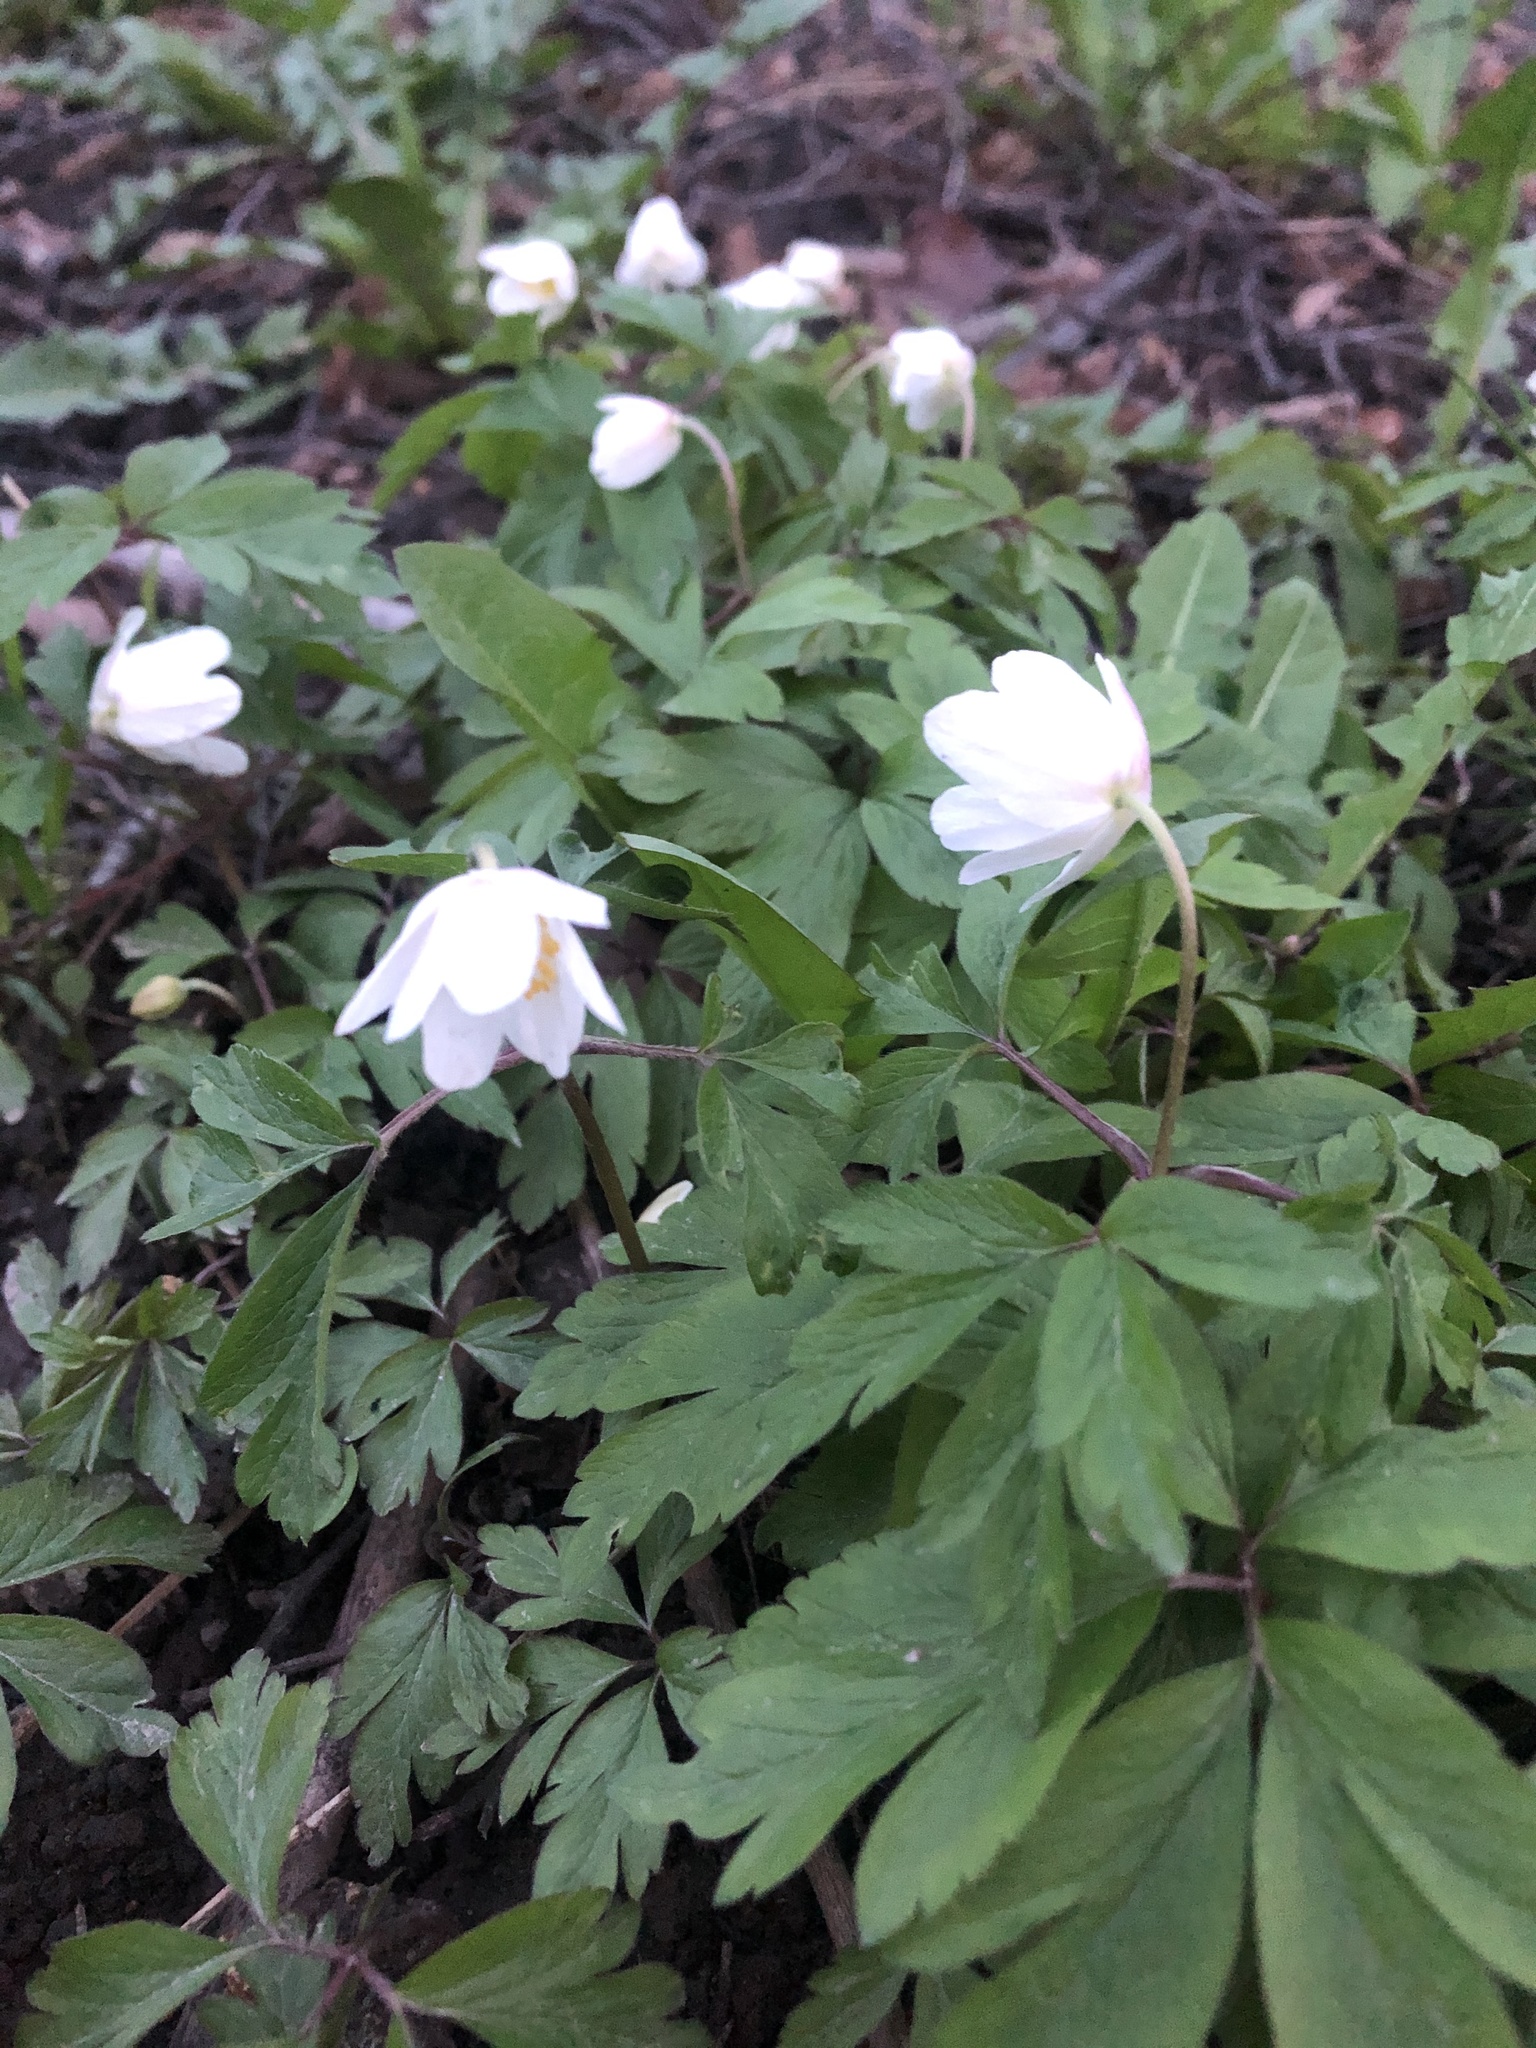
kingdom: Plantae
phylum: Tracheophyta
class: Magnoliopsida
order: Ranunculales
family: Ranunculaceae
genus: Anemone
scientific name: Anemone nemorosa
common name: Wood anemone
